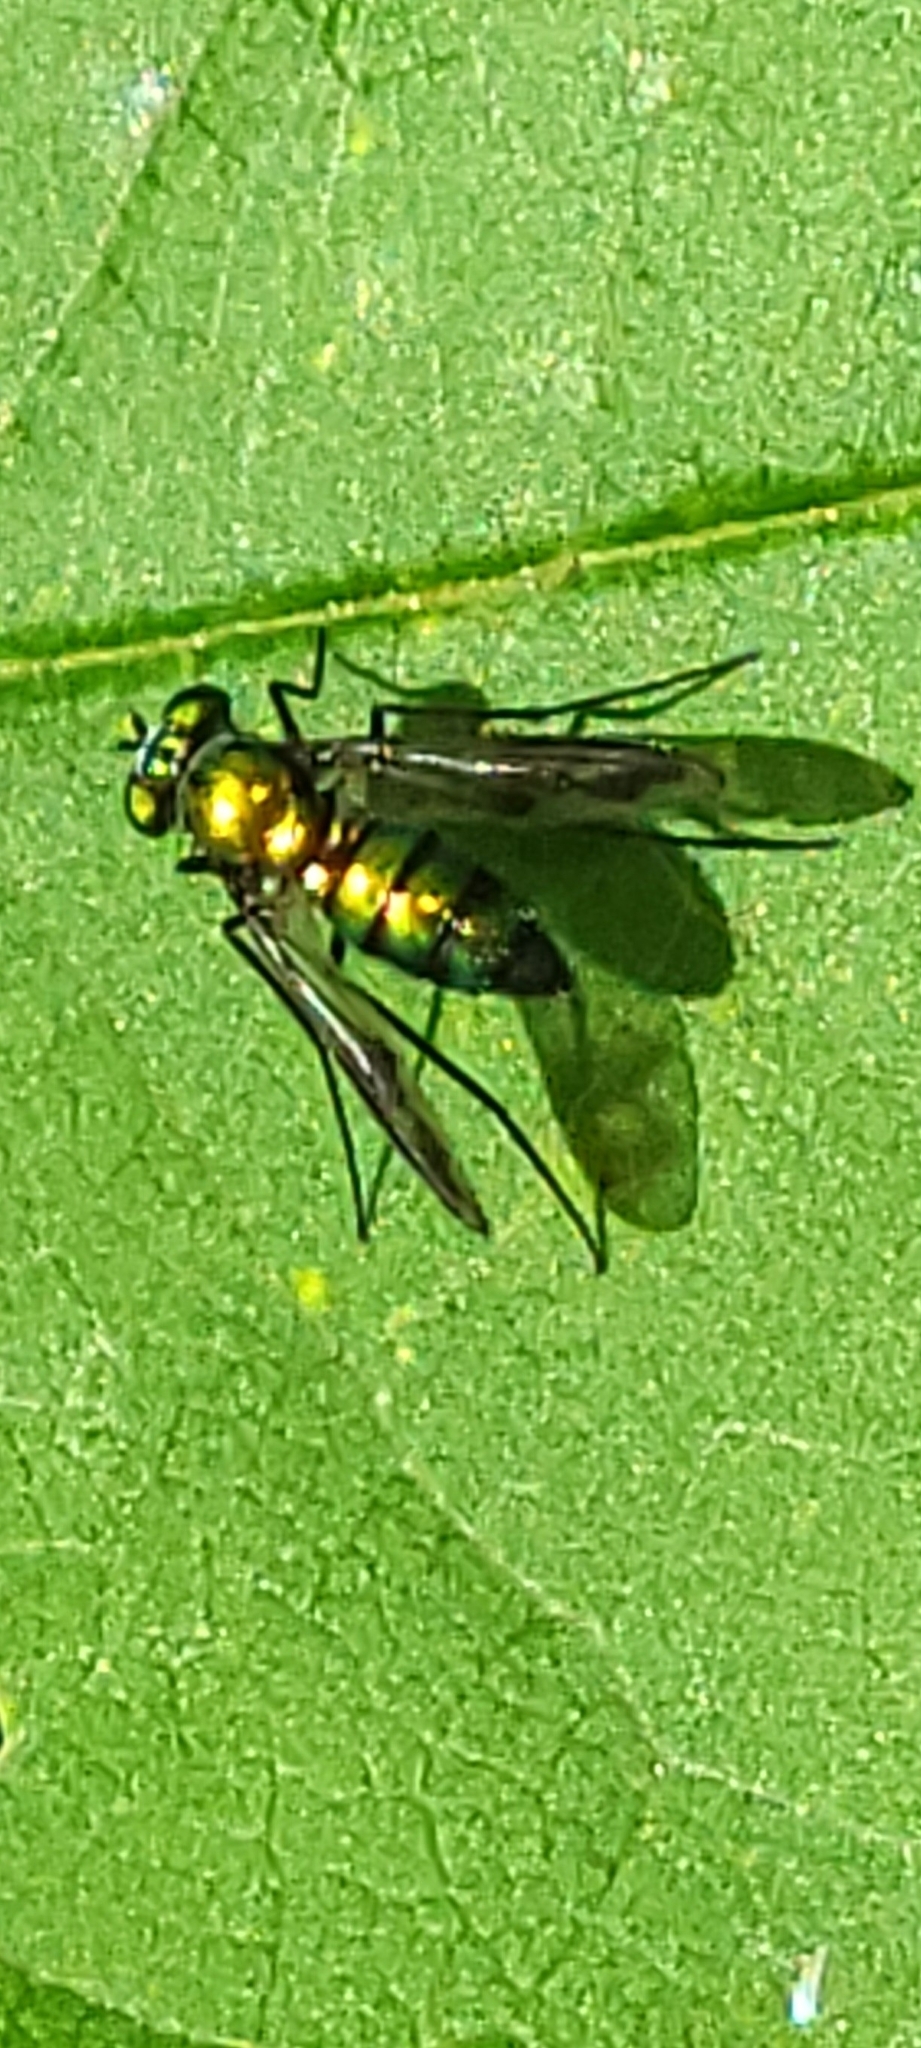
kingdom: Animalia
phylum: Arthropoda
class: Insecta
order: Diptera
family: Dolichopodidae
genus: Condylostylus
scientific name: Condylostylus patibulatus
